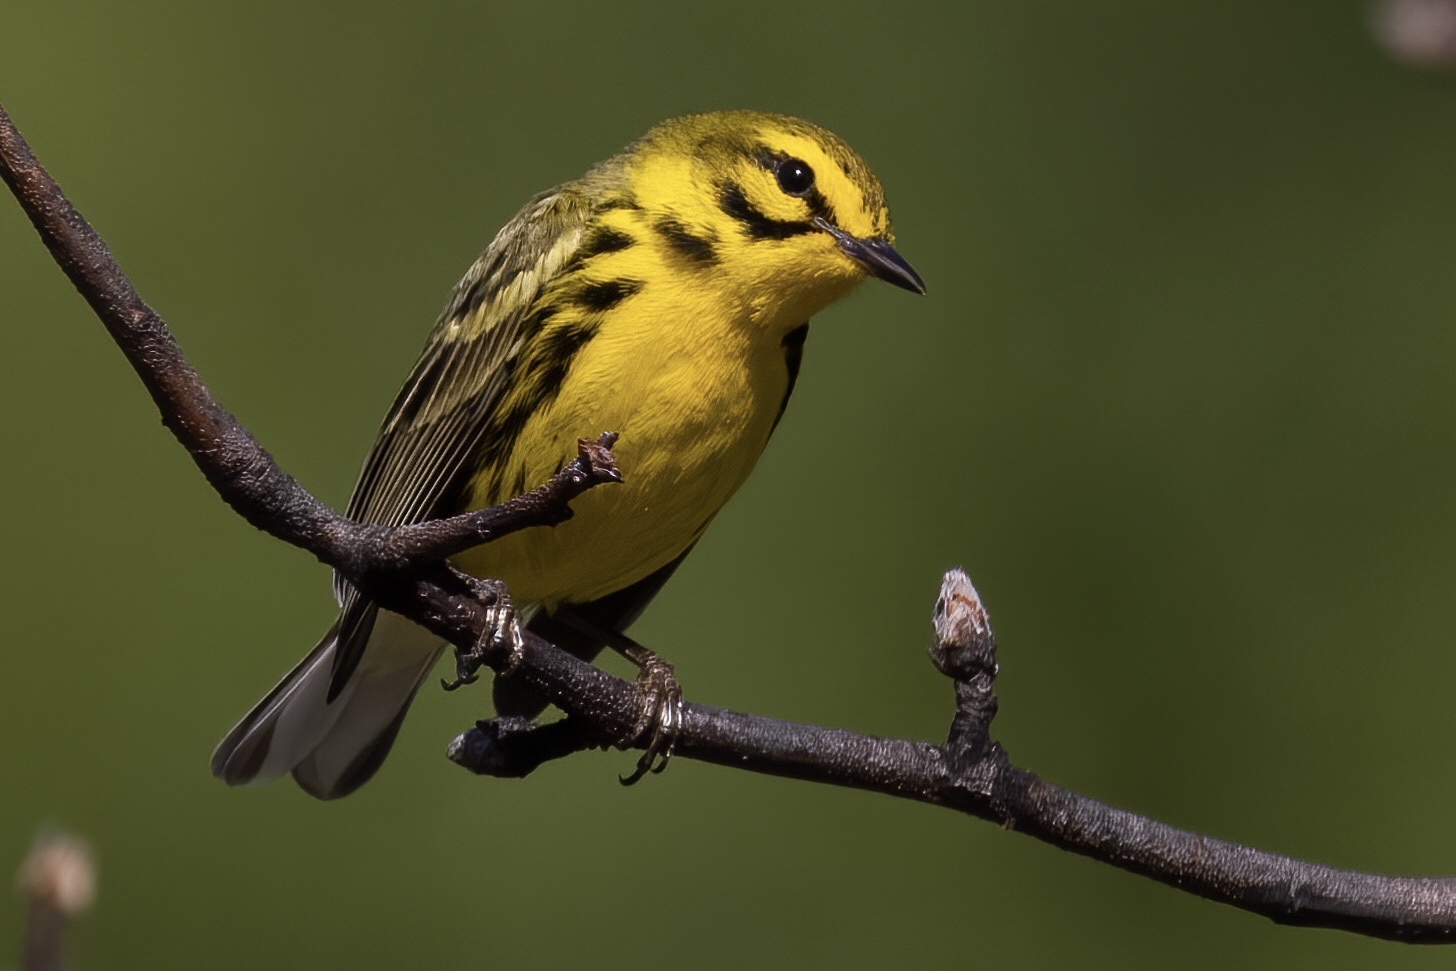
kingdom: Animalia
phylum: Chordata
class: Aves
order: Passeriformes
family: Parulidae
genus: Setophaga
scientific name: Setophaga discolor
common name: Prairie warbler
